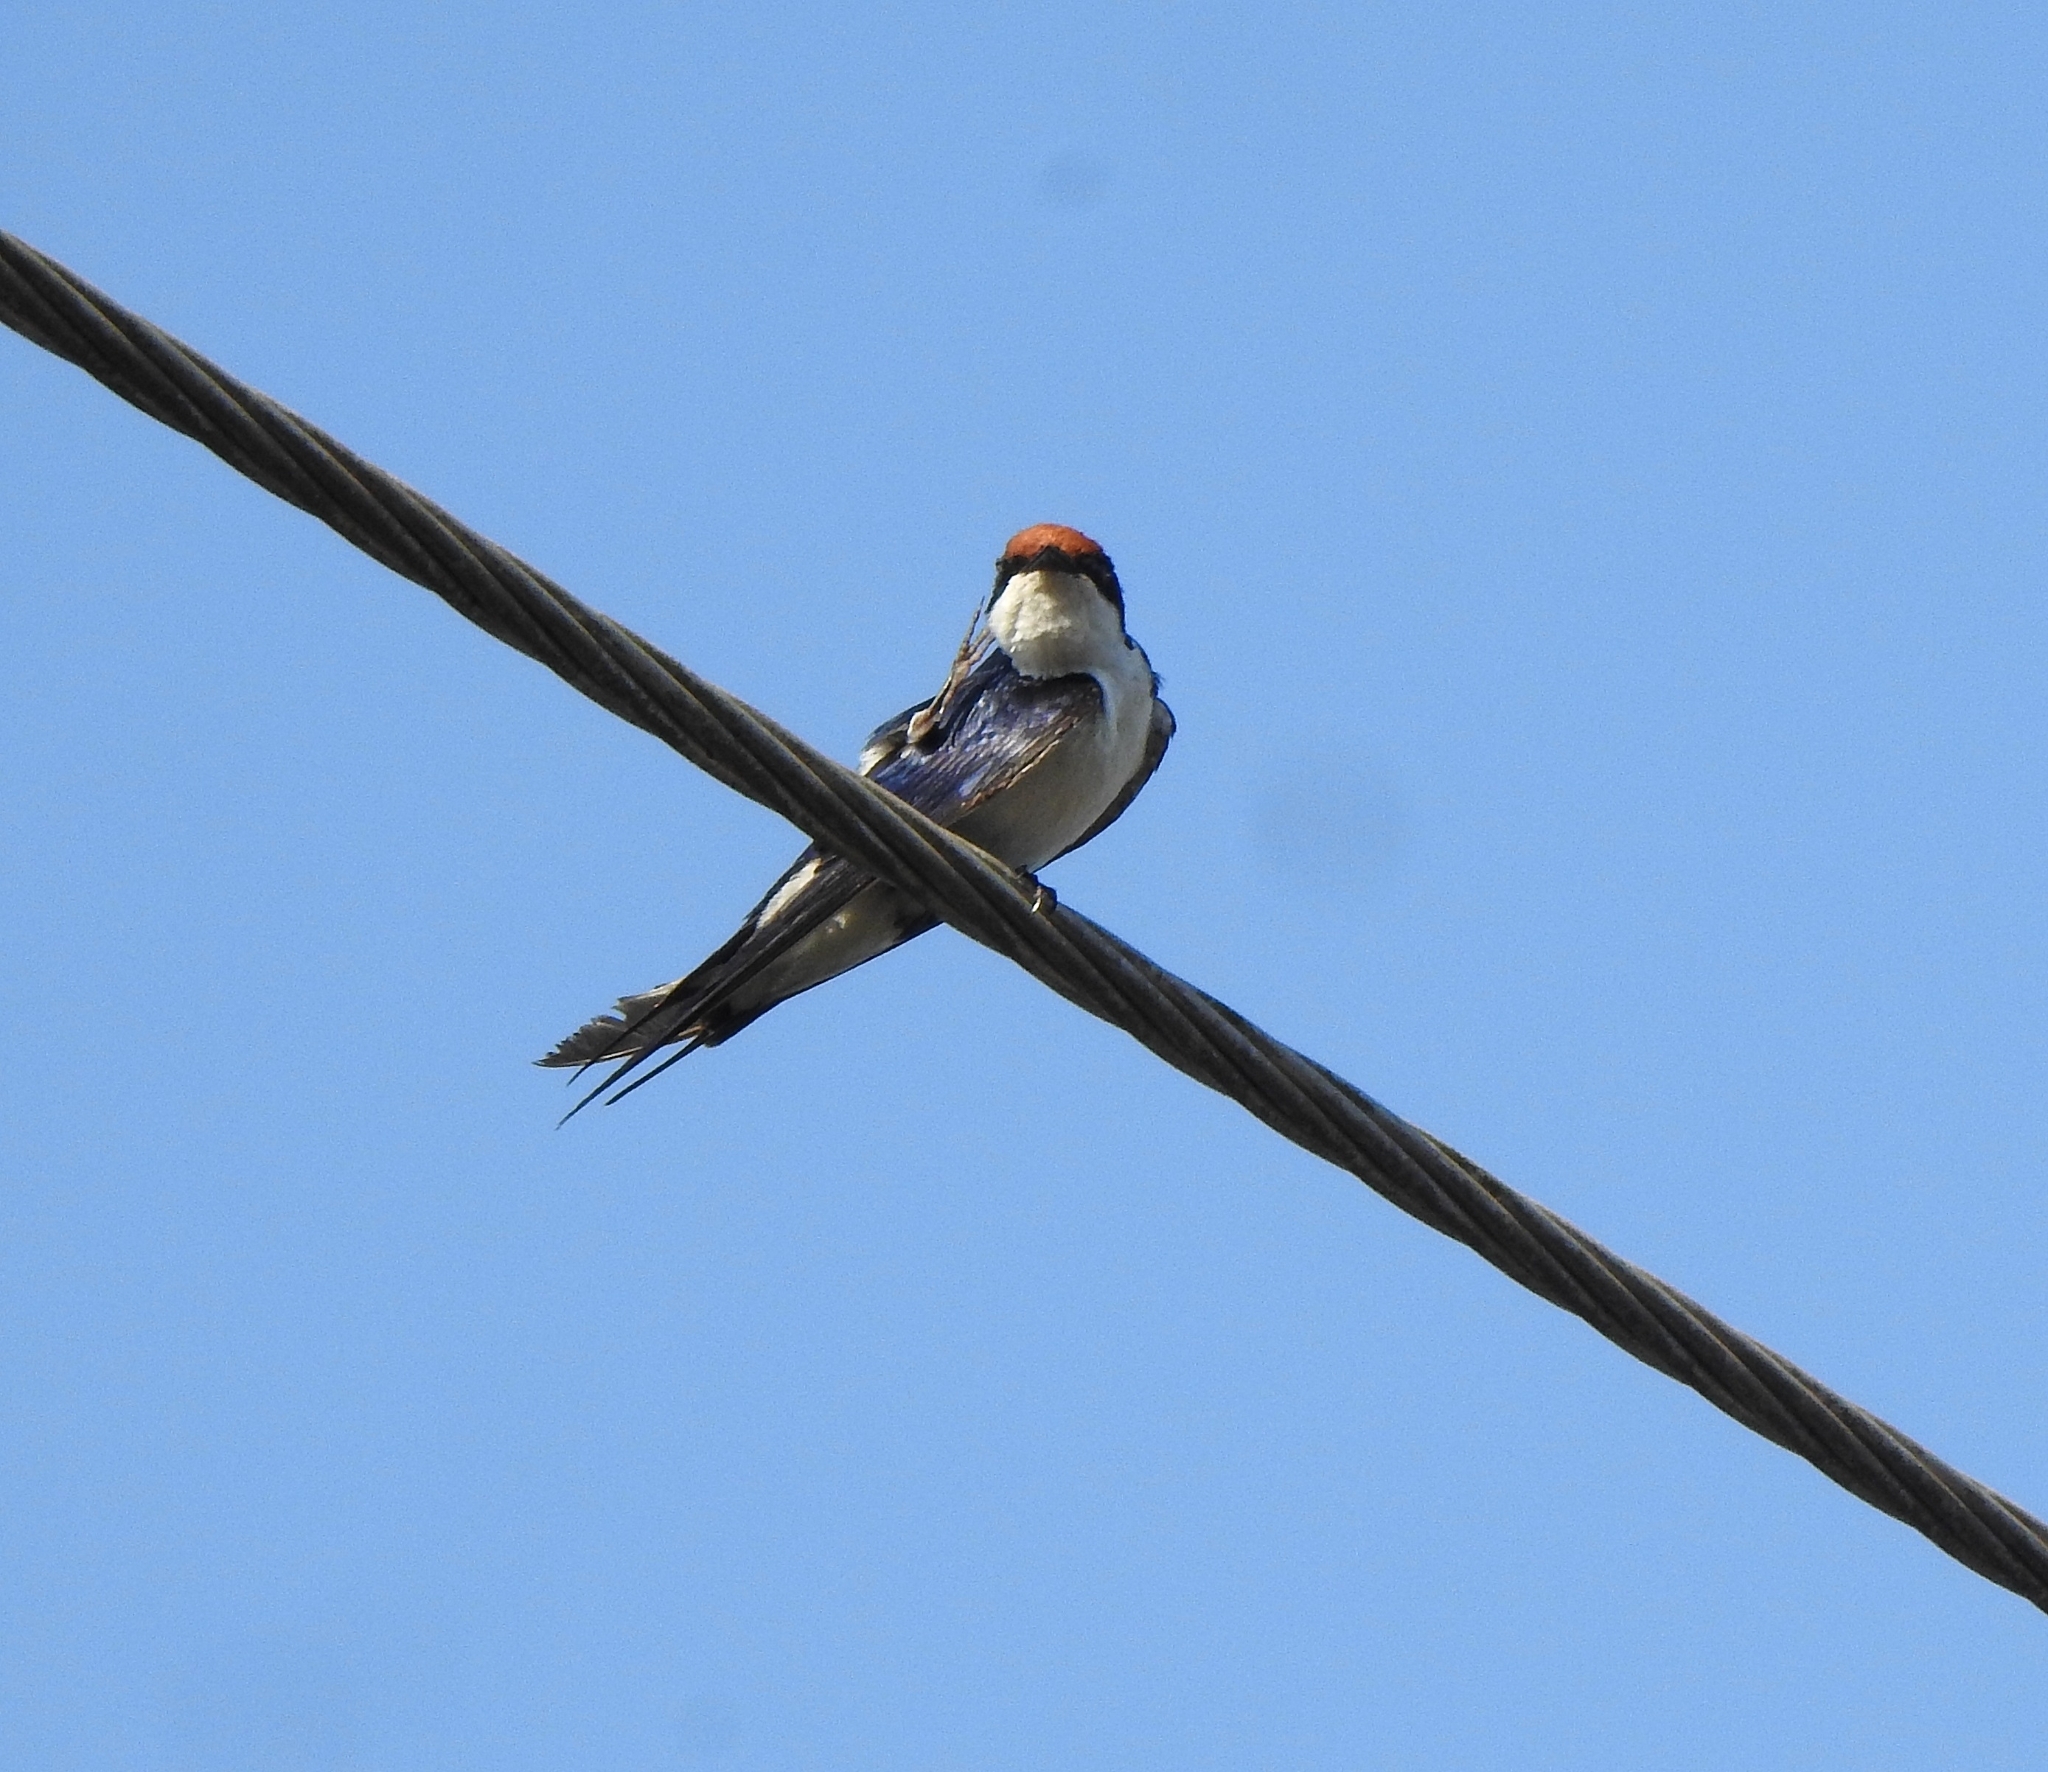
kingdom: Animalia
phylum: Chordata
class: Aves
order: Passeriformes
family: Hirundinidae
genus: Hirundo
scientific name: Hirundo smithii
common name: Wire-tailed swallow
